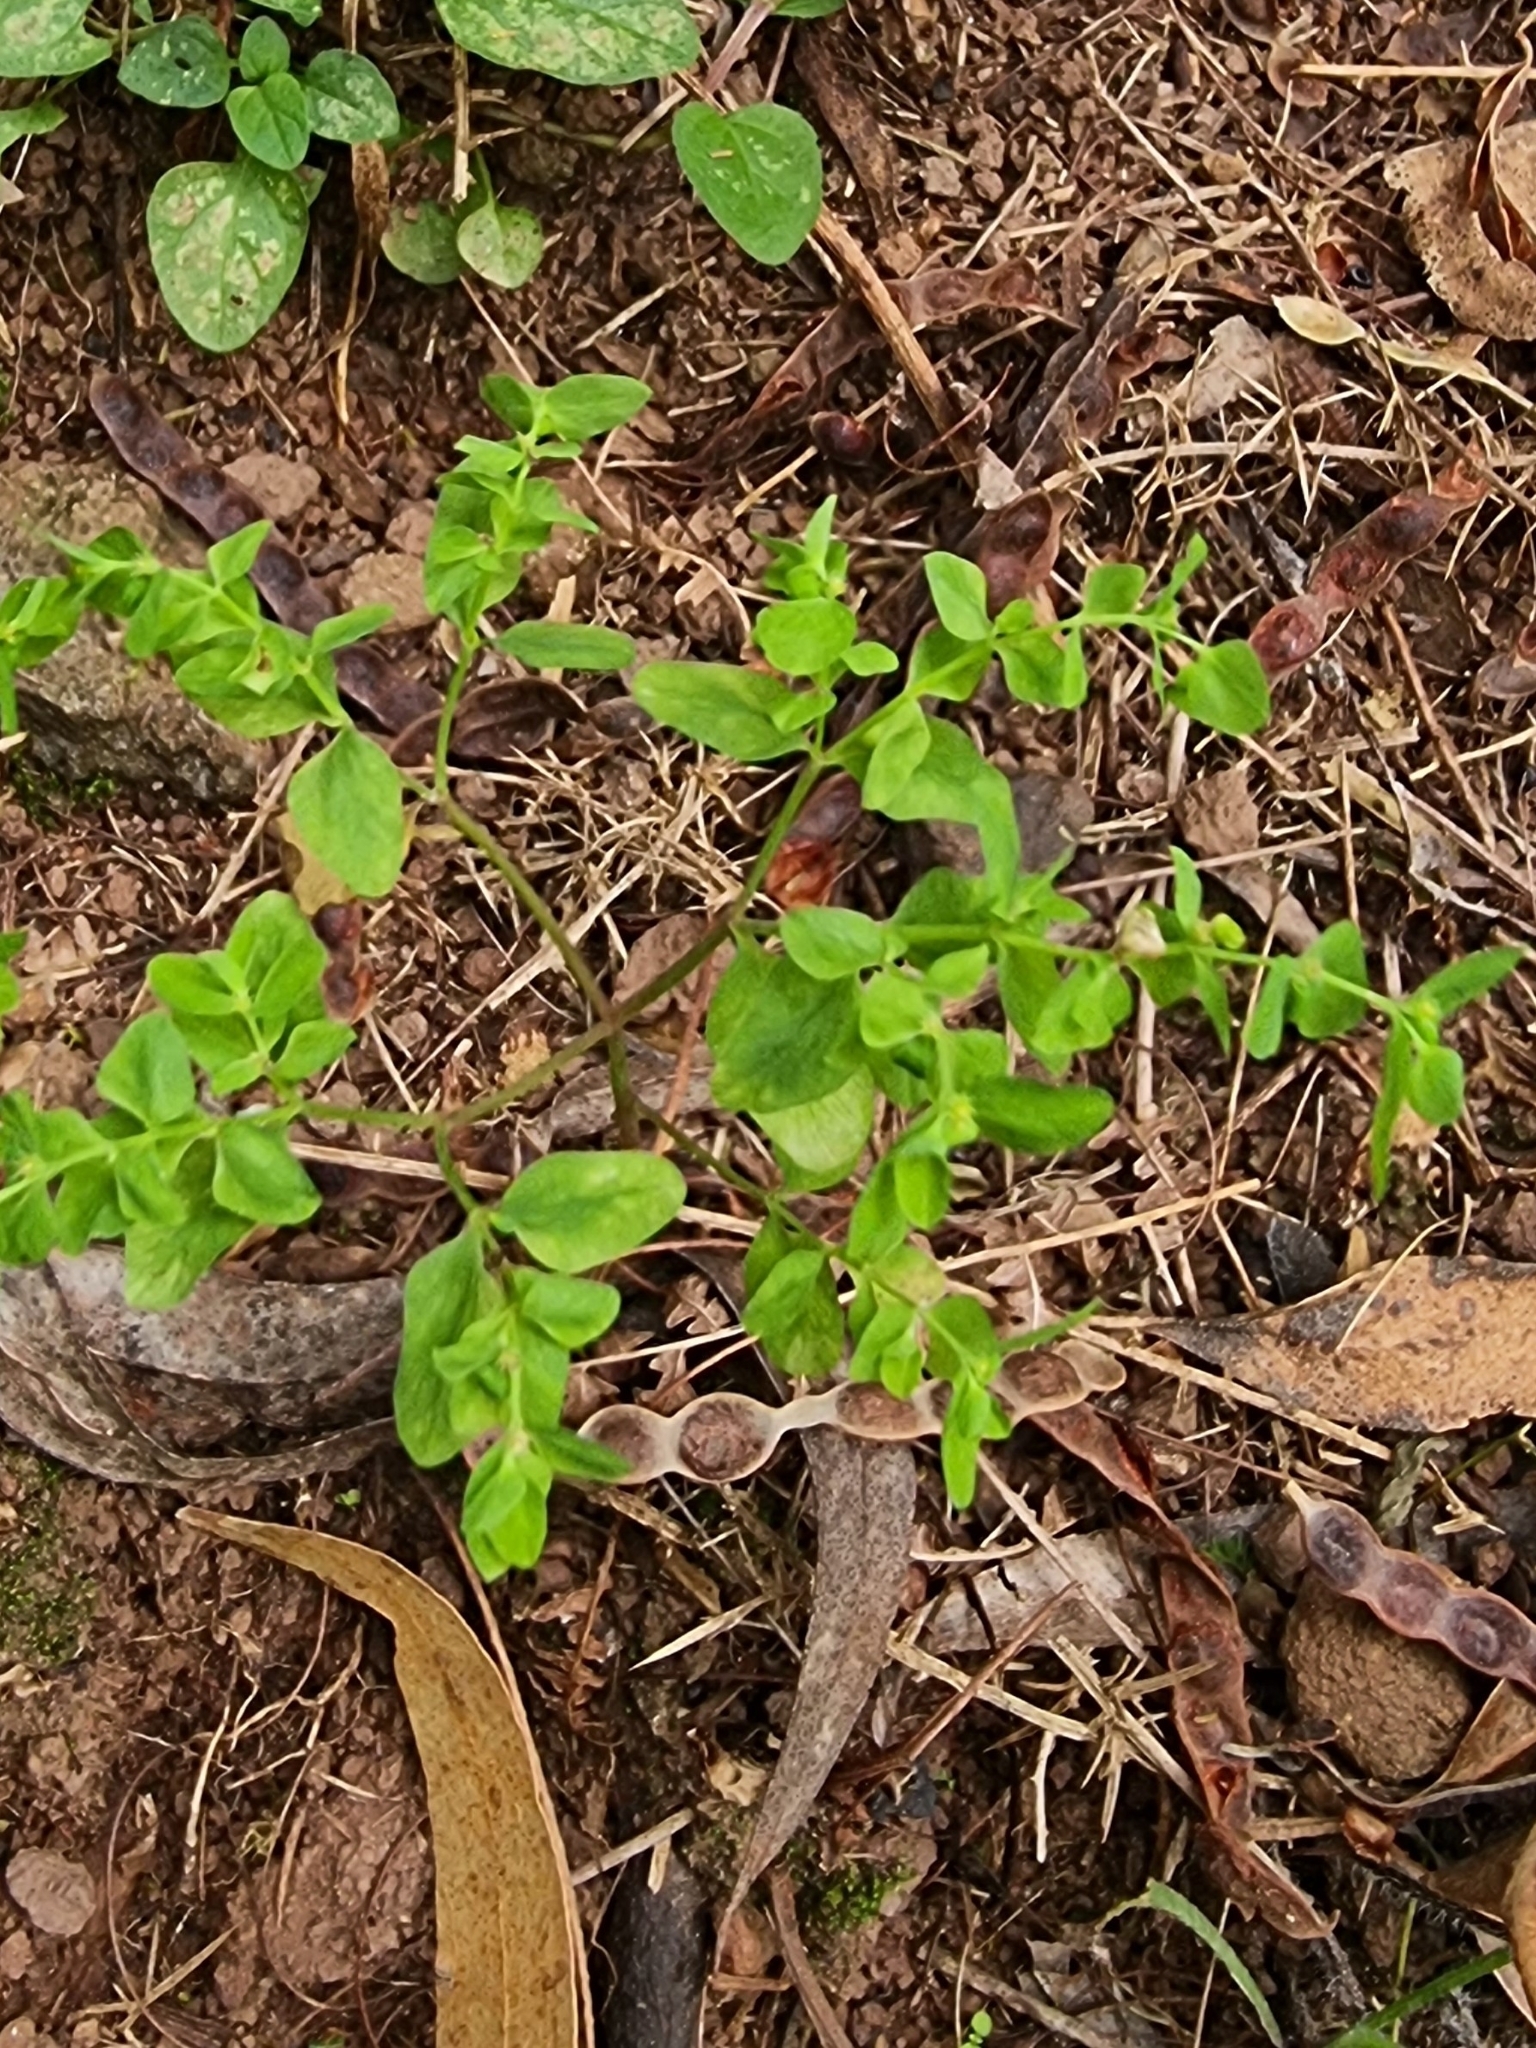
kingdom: Plantae
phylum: Tracheophyta
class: Magnoliopsida
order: Malpighiales
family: Euphorbiaceae
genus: Euphorbia
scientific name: Euphorbia peplus
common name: Petty spurge
